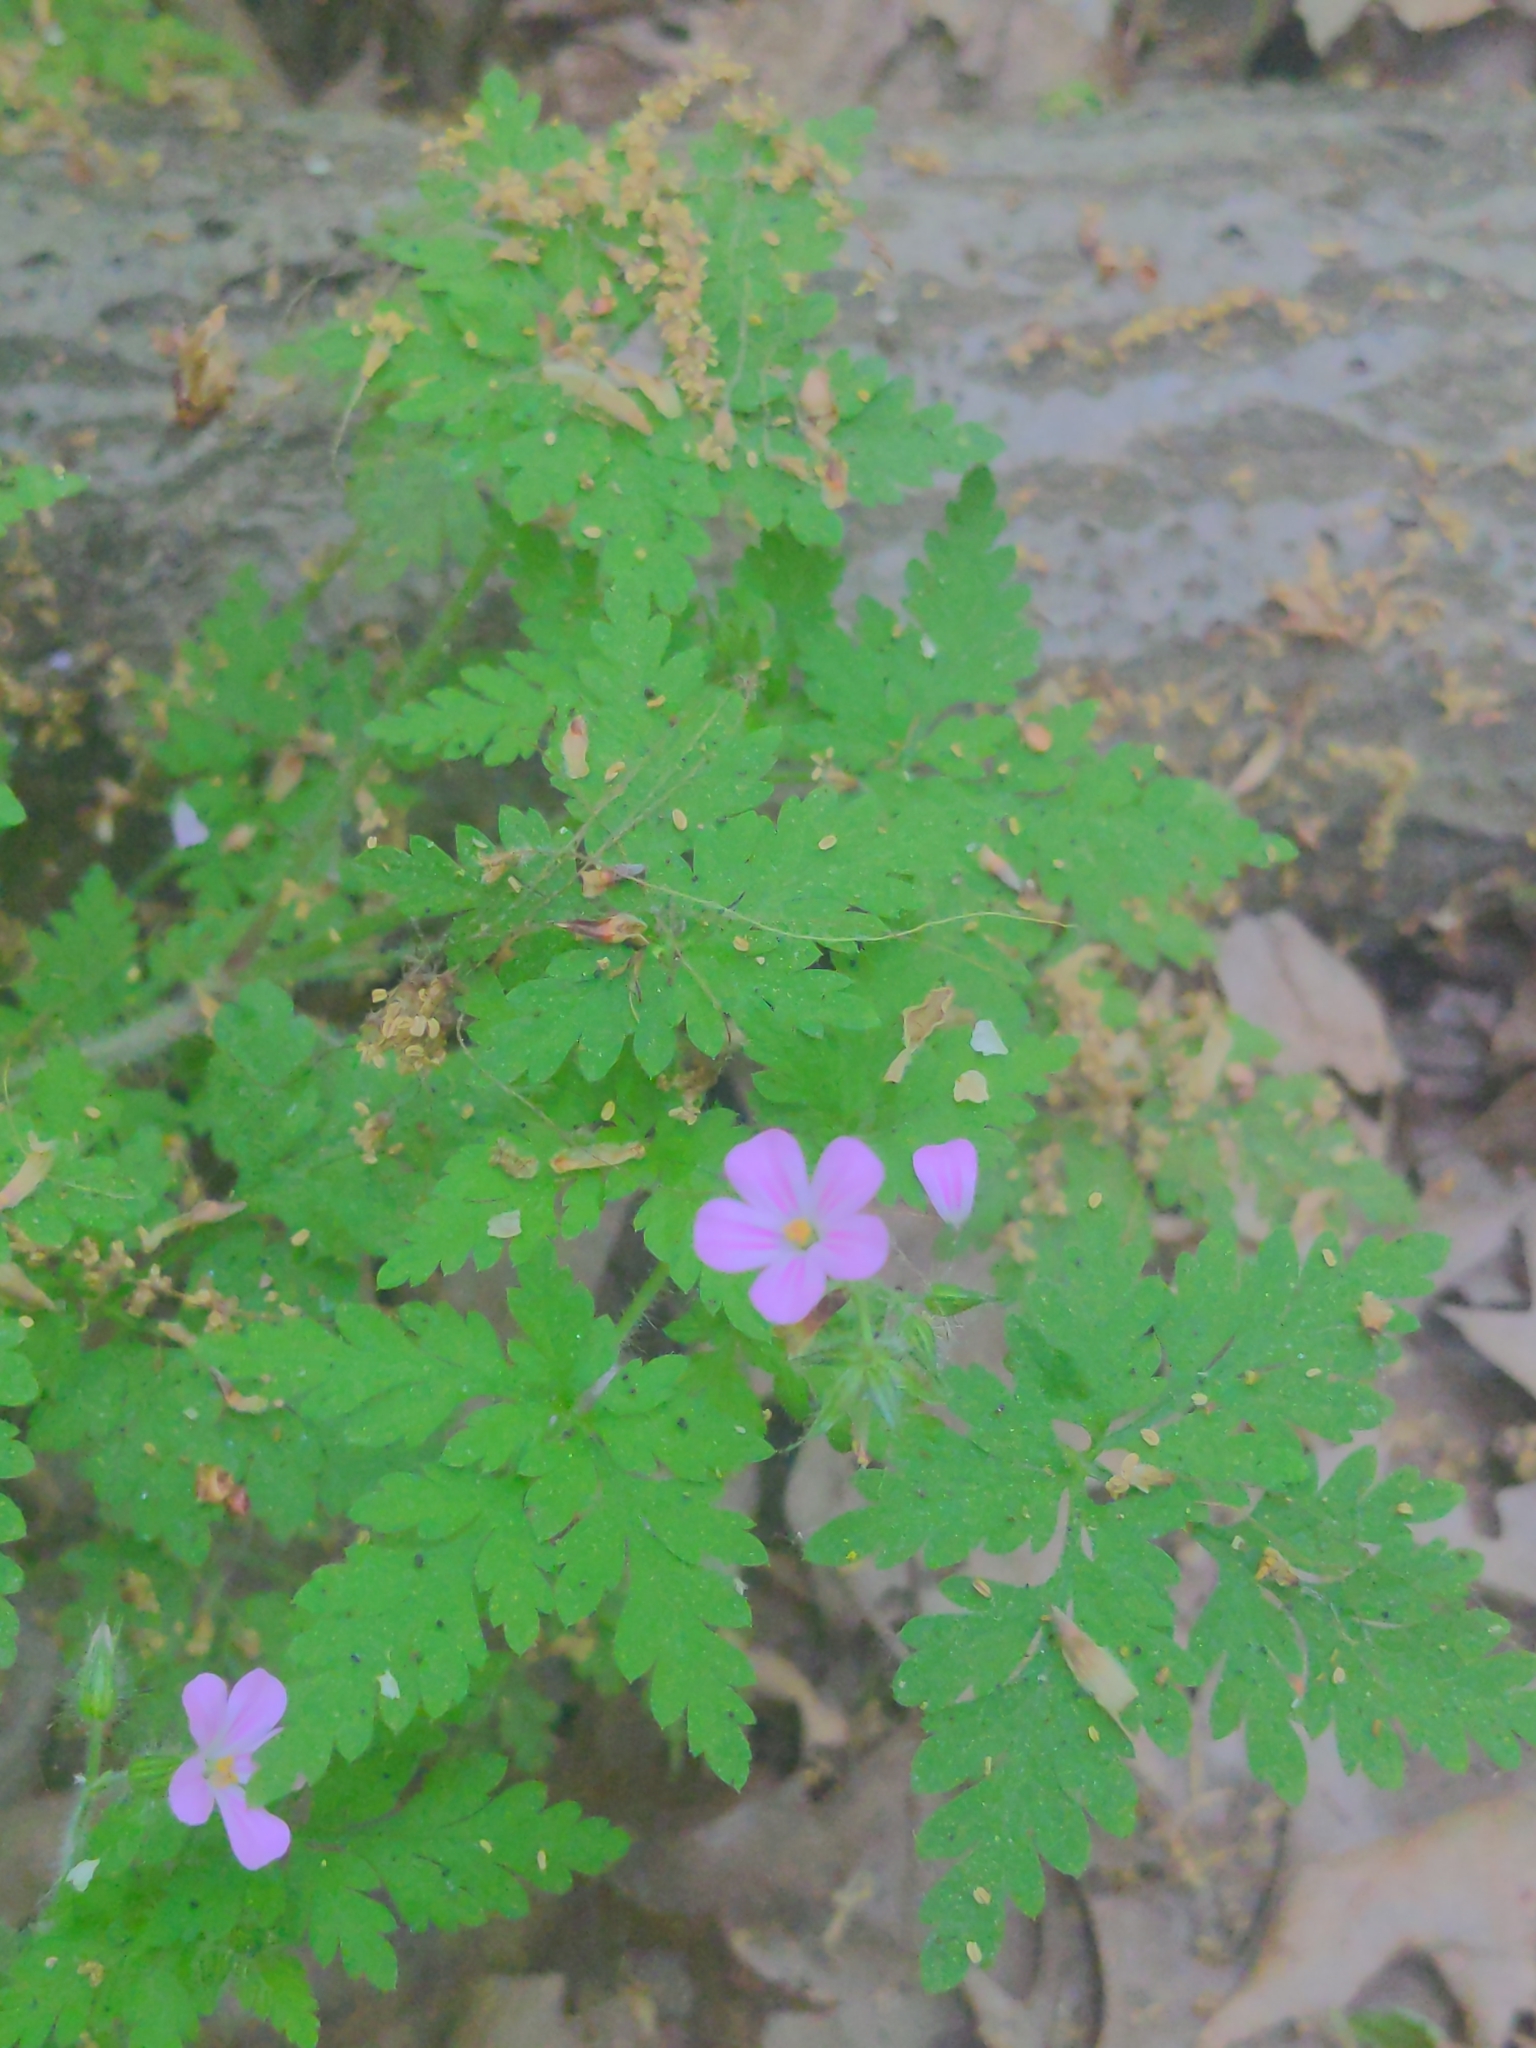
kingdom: Plantae
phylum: Tracheophyta
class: Magnoliopsida
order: Geraniales
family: Geraniaceae
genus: Geranium
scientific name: Geranium robertianum
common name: Herb-robert
